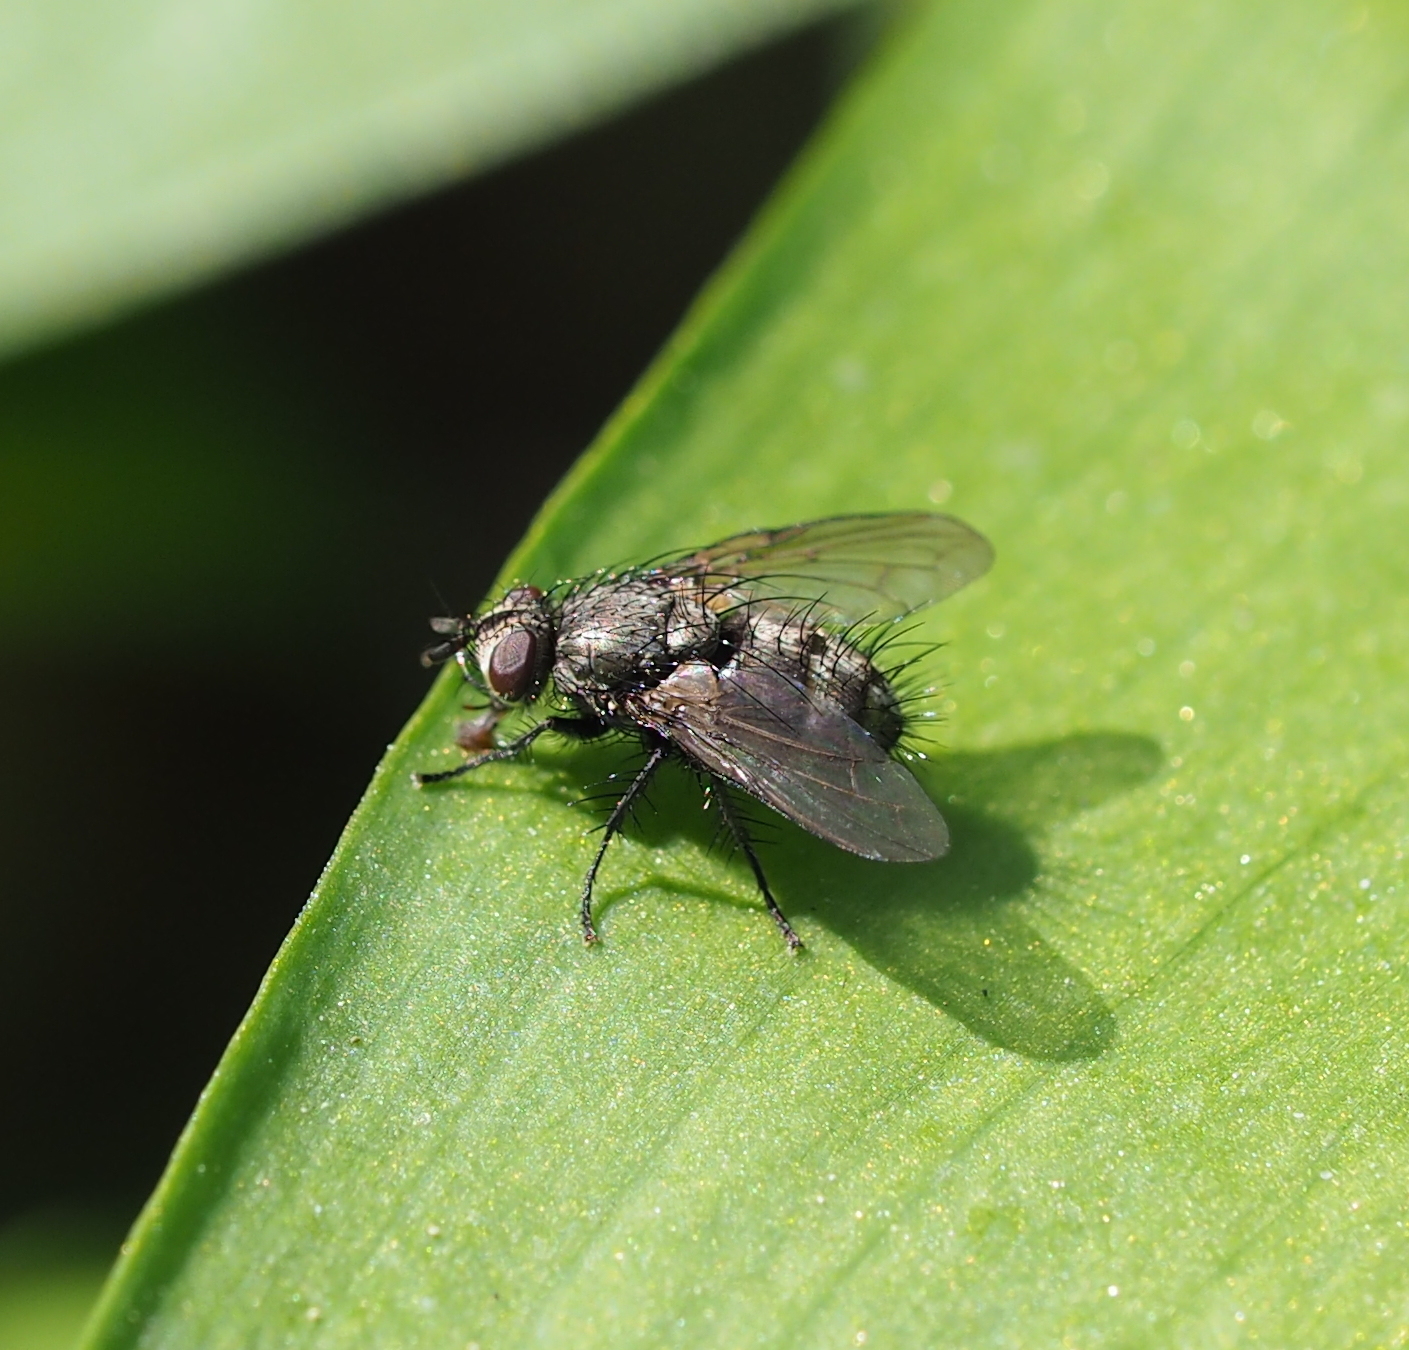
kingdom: Animalia
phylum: Arthropoda
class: Insecta
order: Diptera
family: Tachinidae
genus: Lypha
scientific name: Lypha dubia
